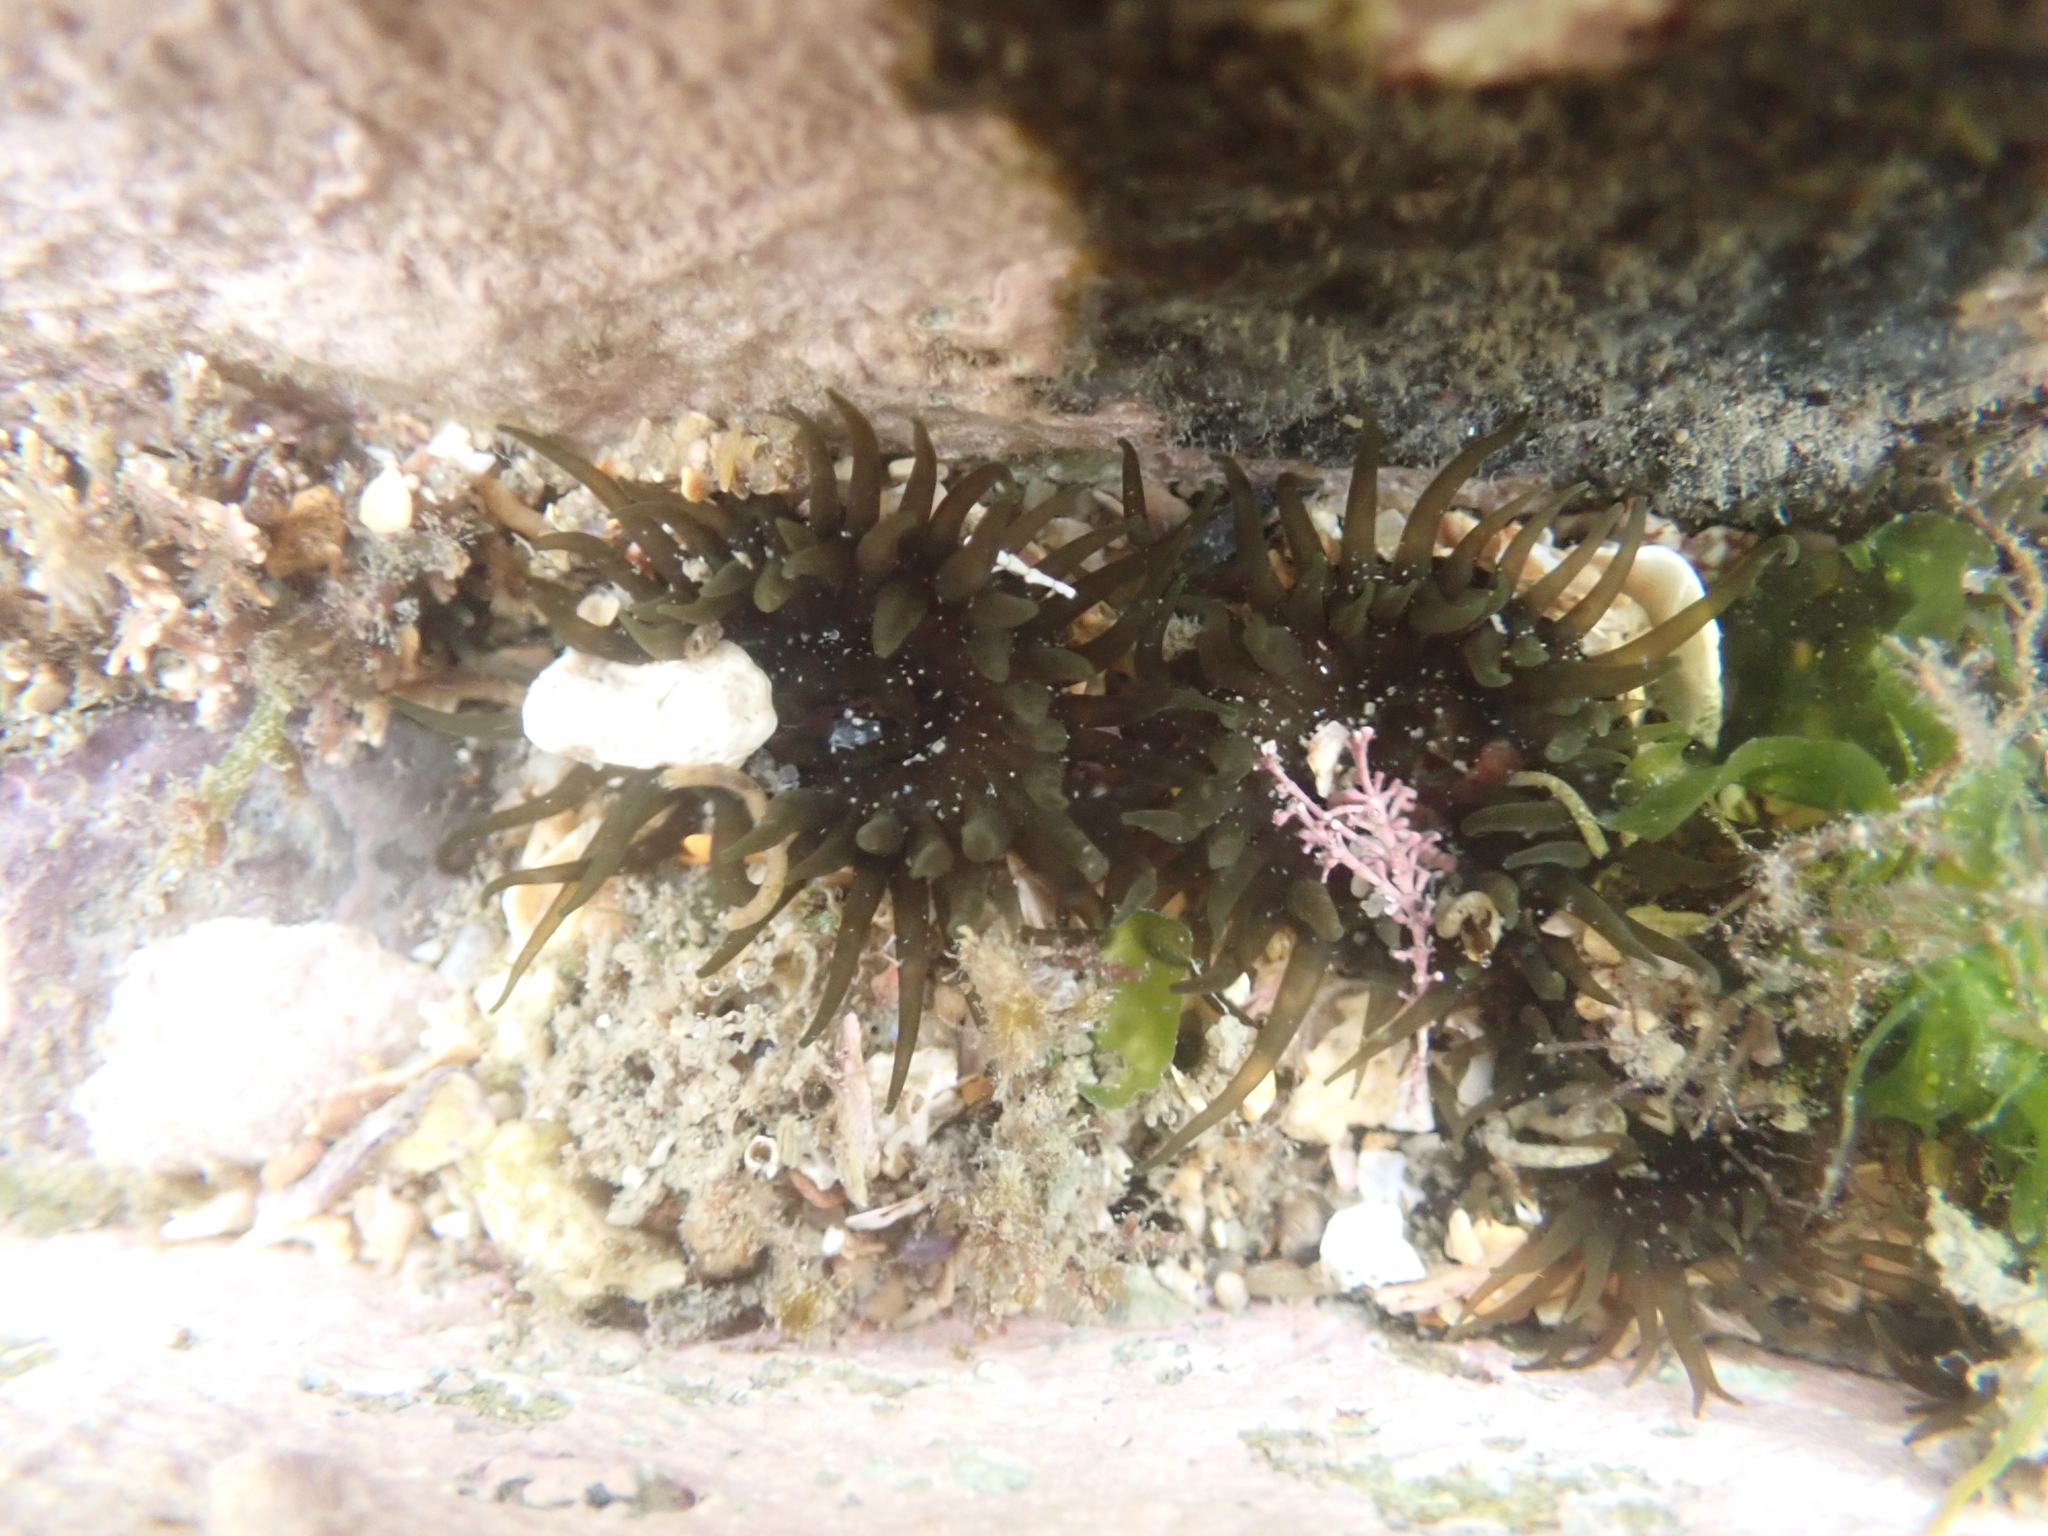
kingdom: Animalia
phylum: Cnidaria
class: Anthozoa
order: Actiniaria
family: Actiniidae
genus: Aulactinia
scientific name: Aulactinia veratra
